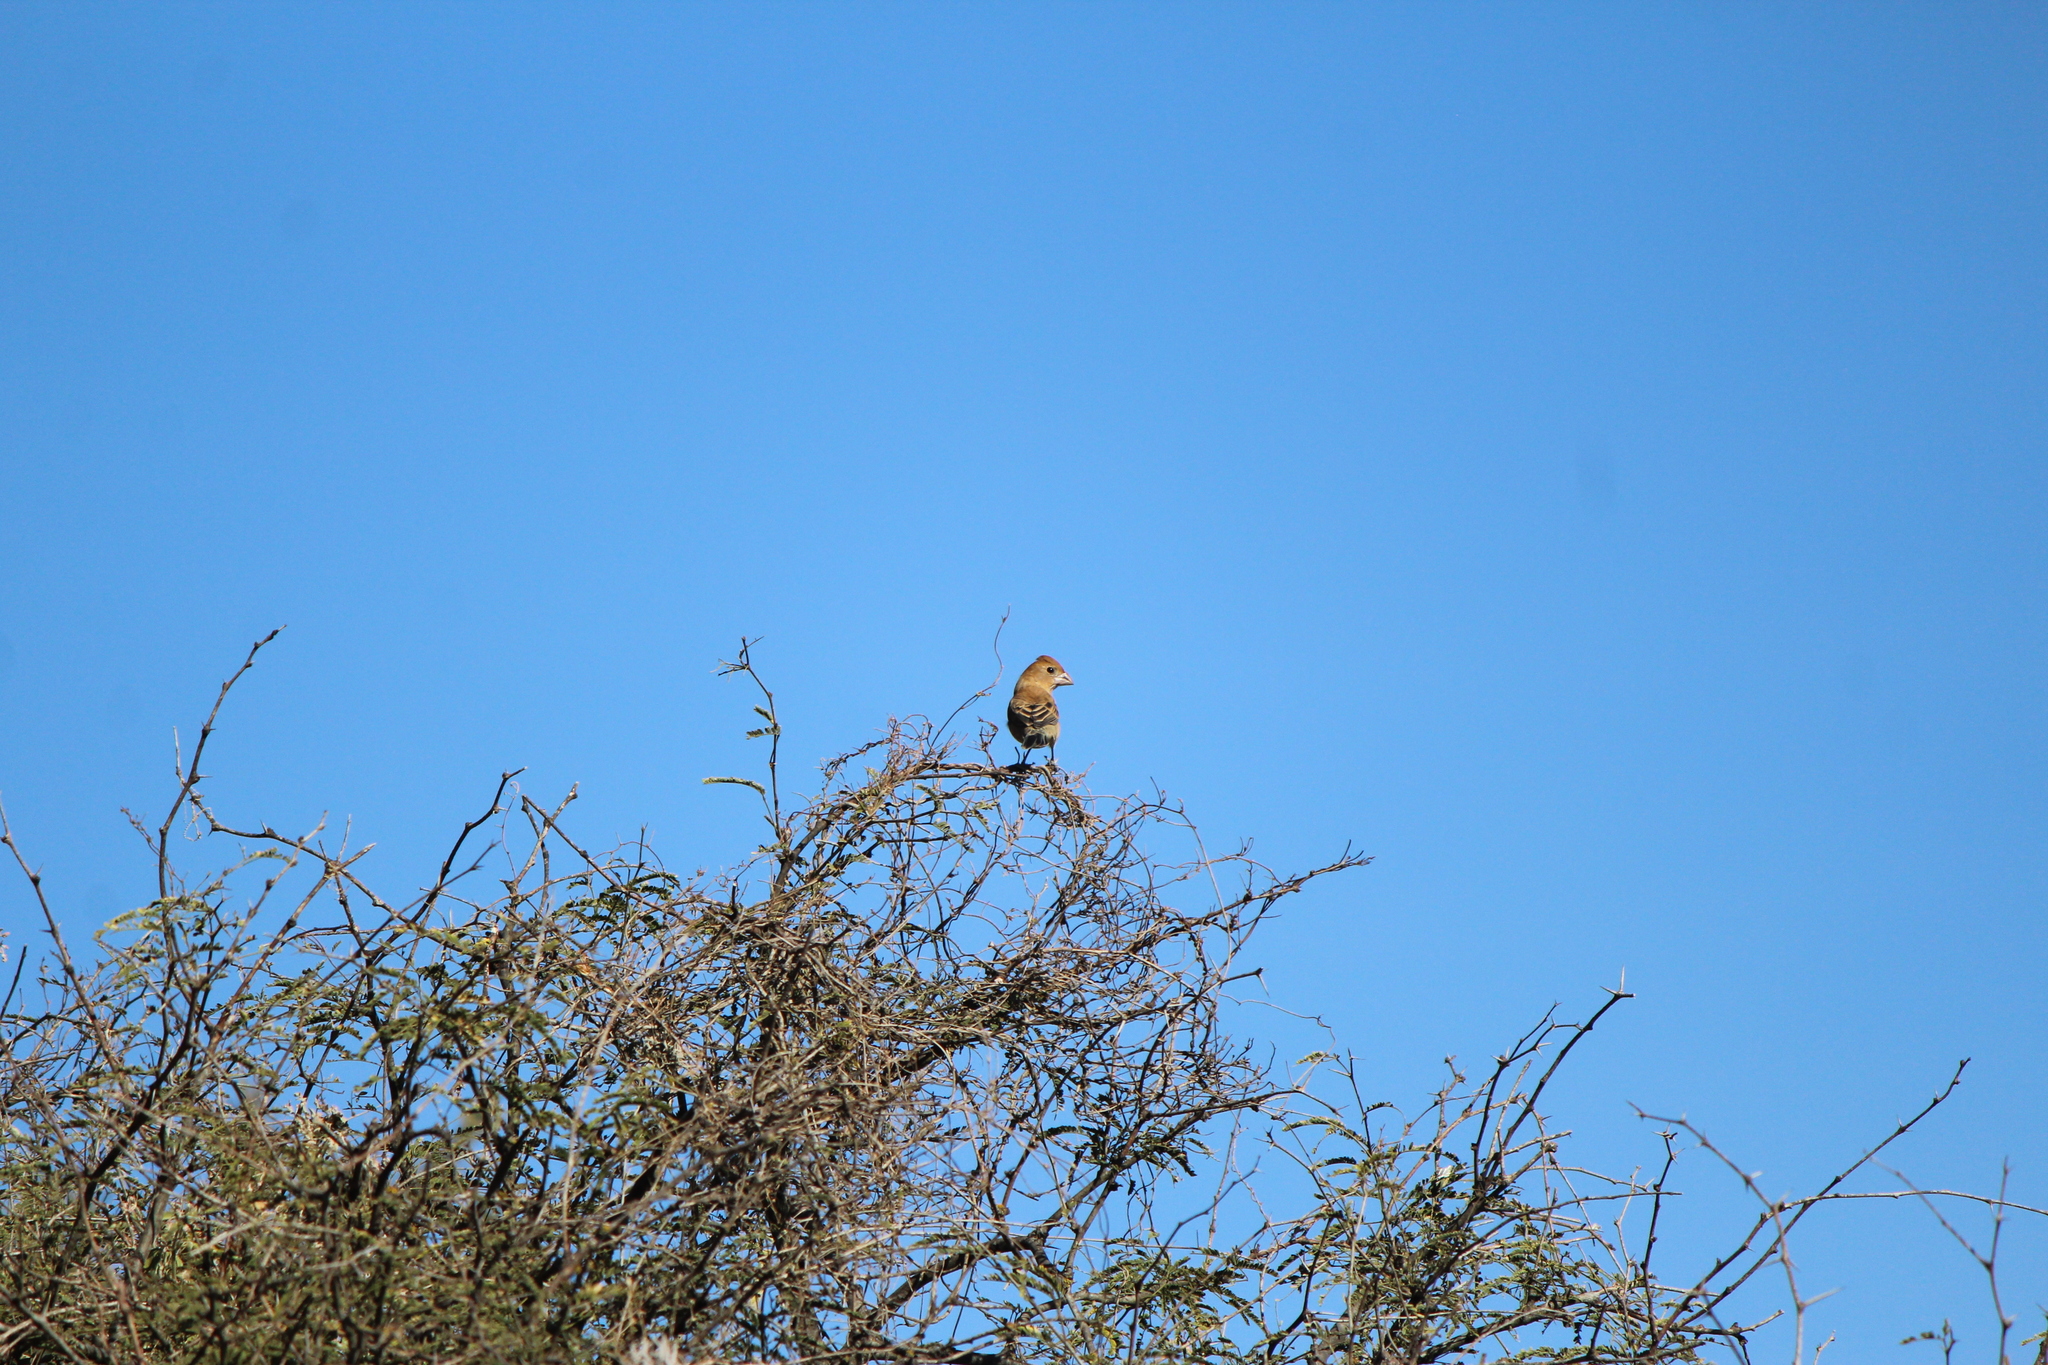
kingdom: Animalia
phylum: Chordata
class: Aves
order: Passeriformes
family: Cardinalidae
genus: Passerina
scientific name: Passerina caerulea
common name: Blue grosbeak
